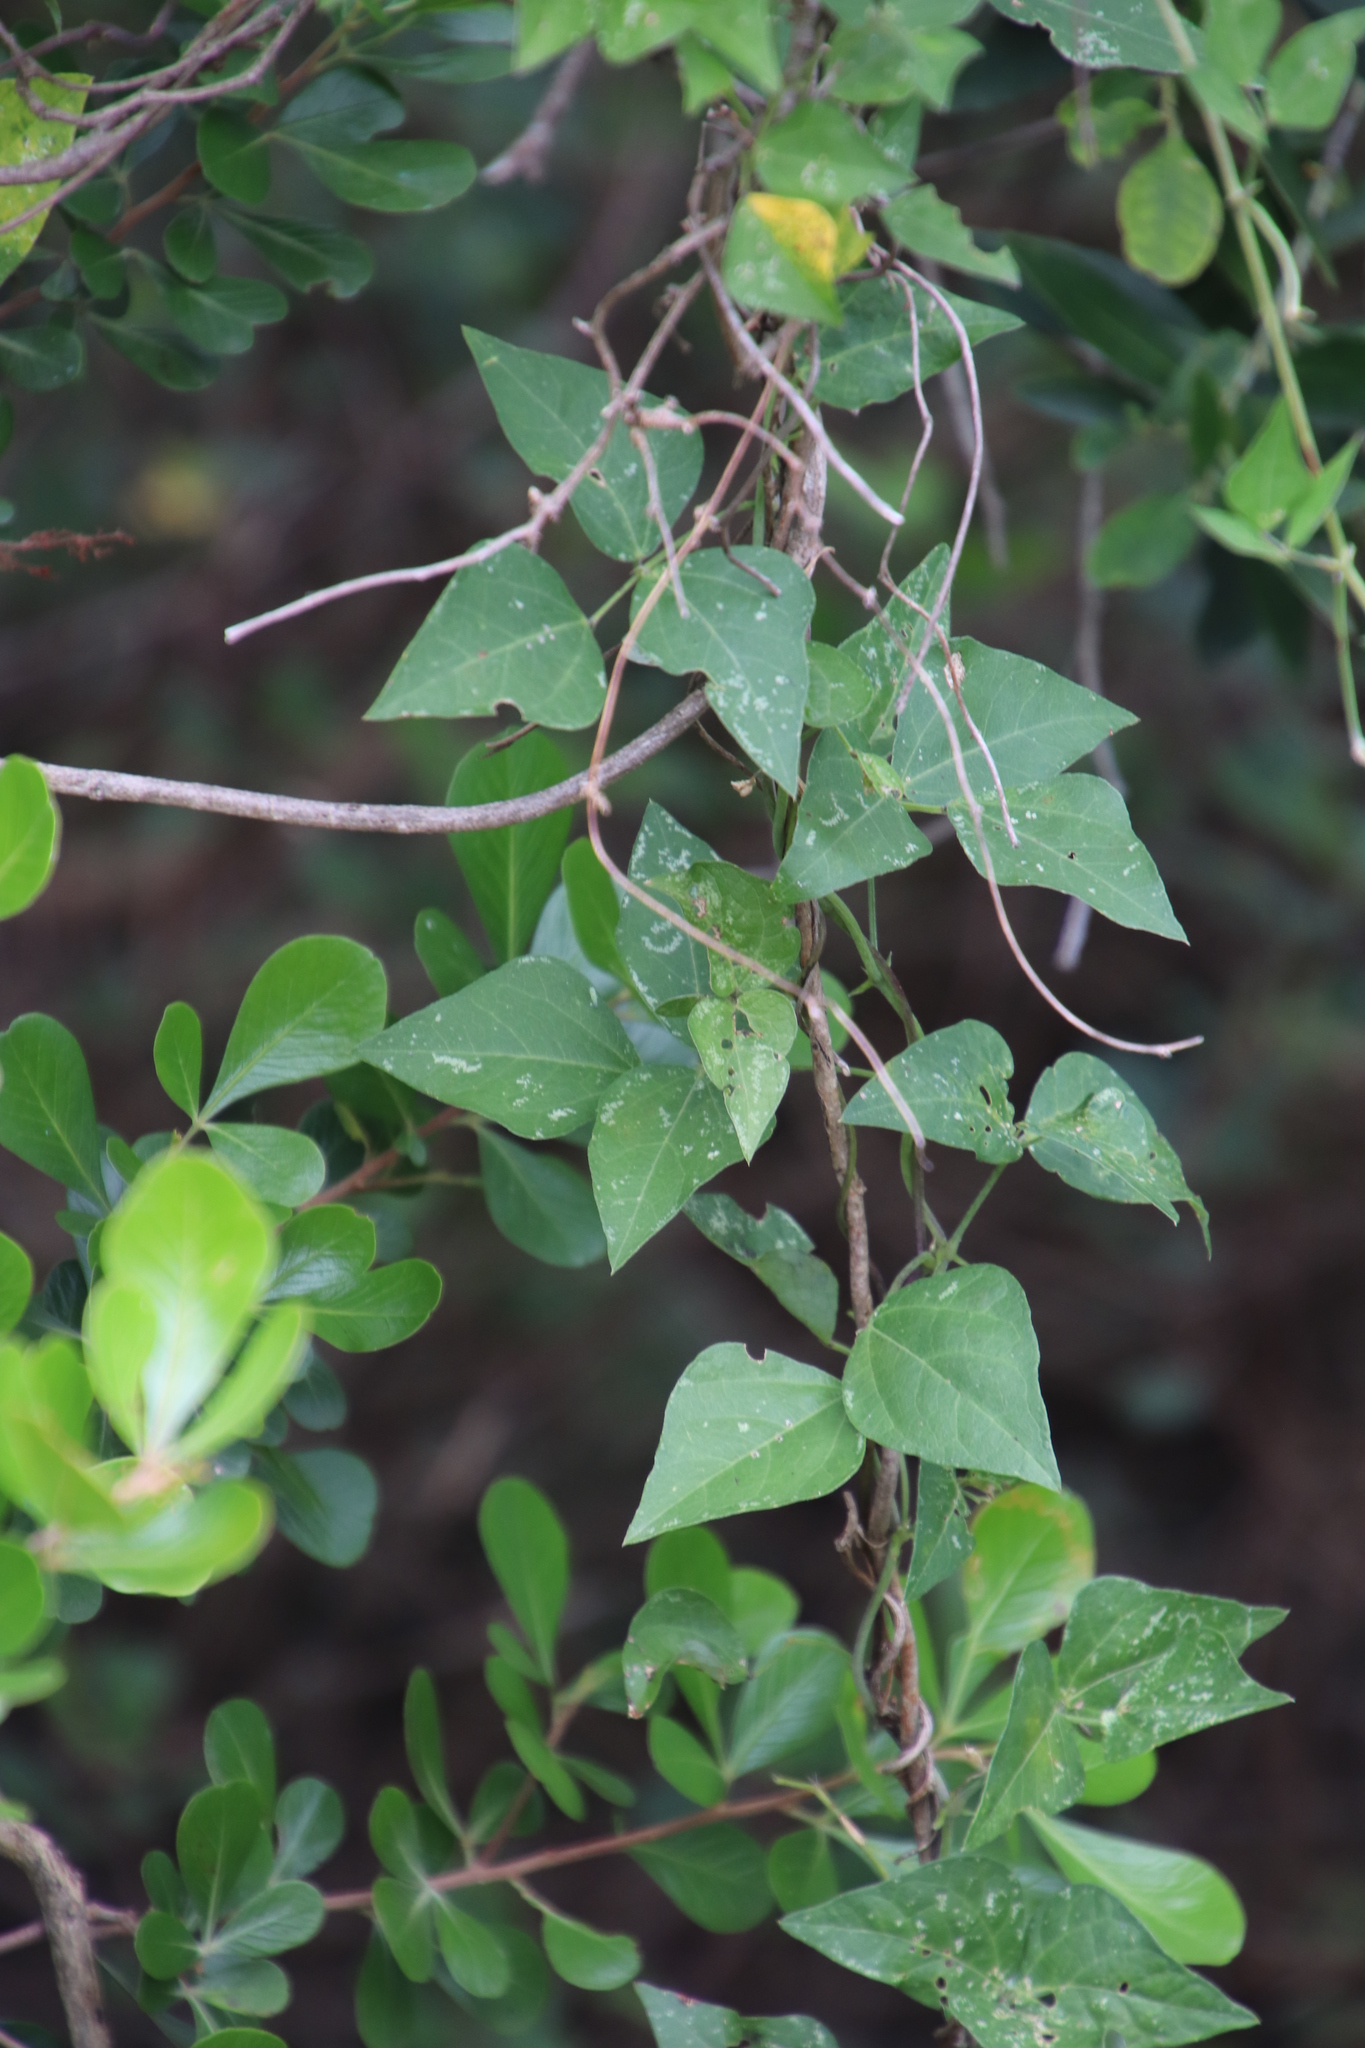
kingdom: Plantae
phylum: Tracheophyta
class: Magnoliopsida
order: Fabales
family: Fabaceae
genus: Dipogon
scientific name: Dipogon lignosus
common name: Okie bean
